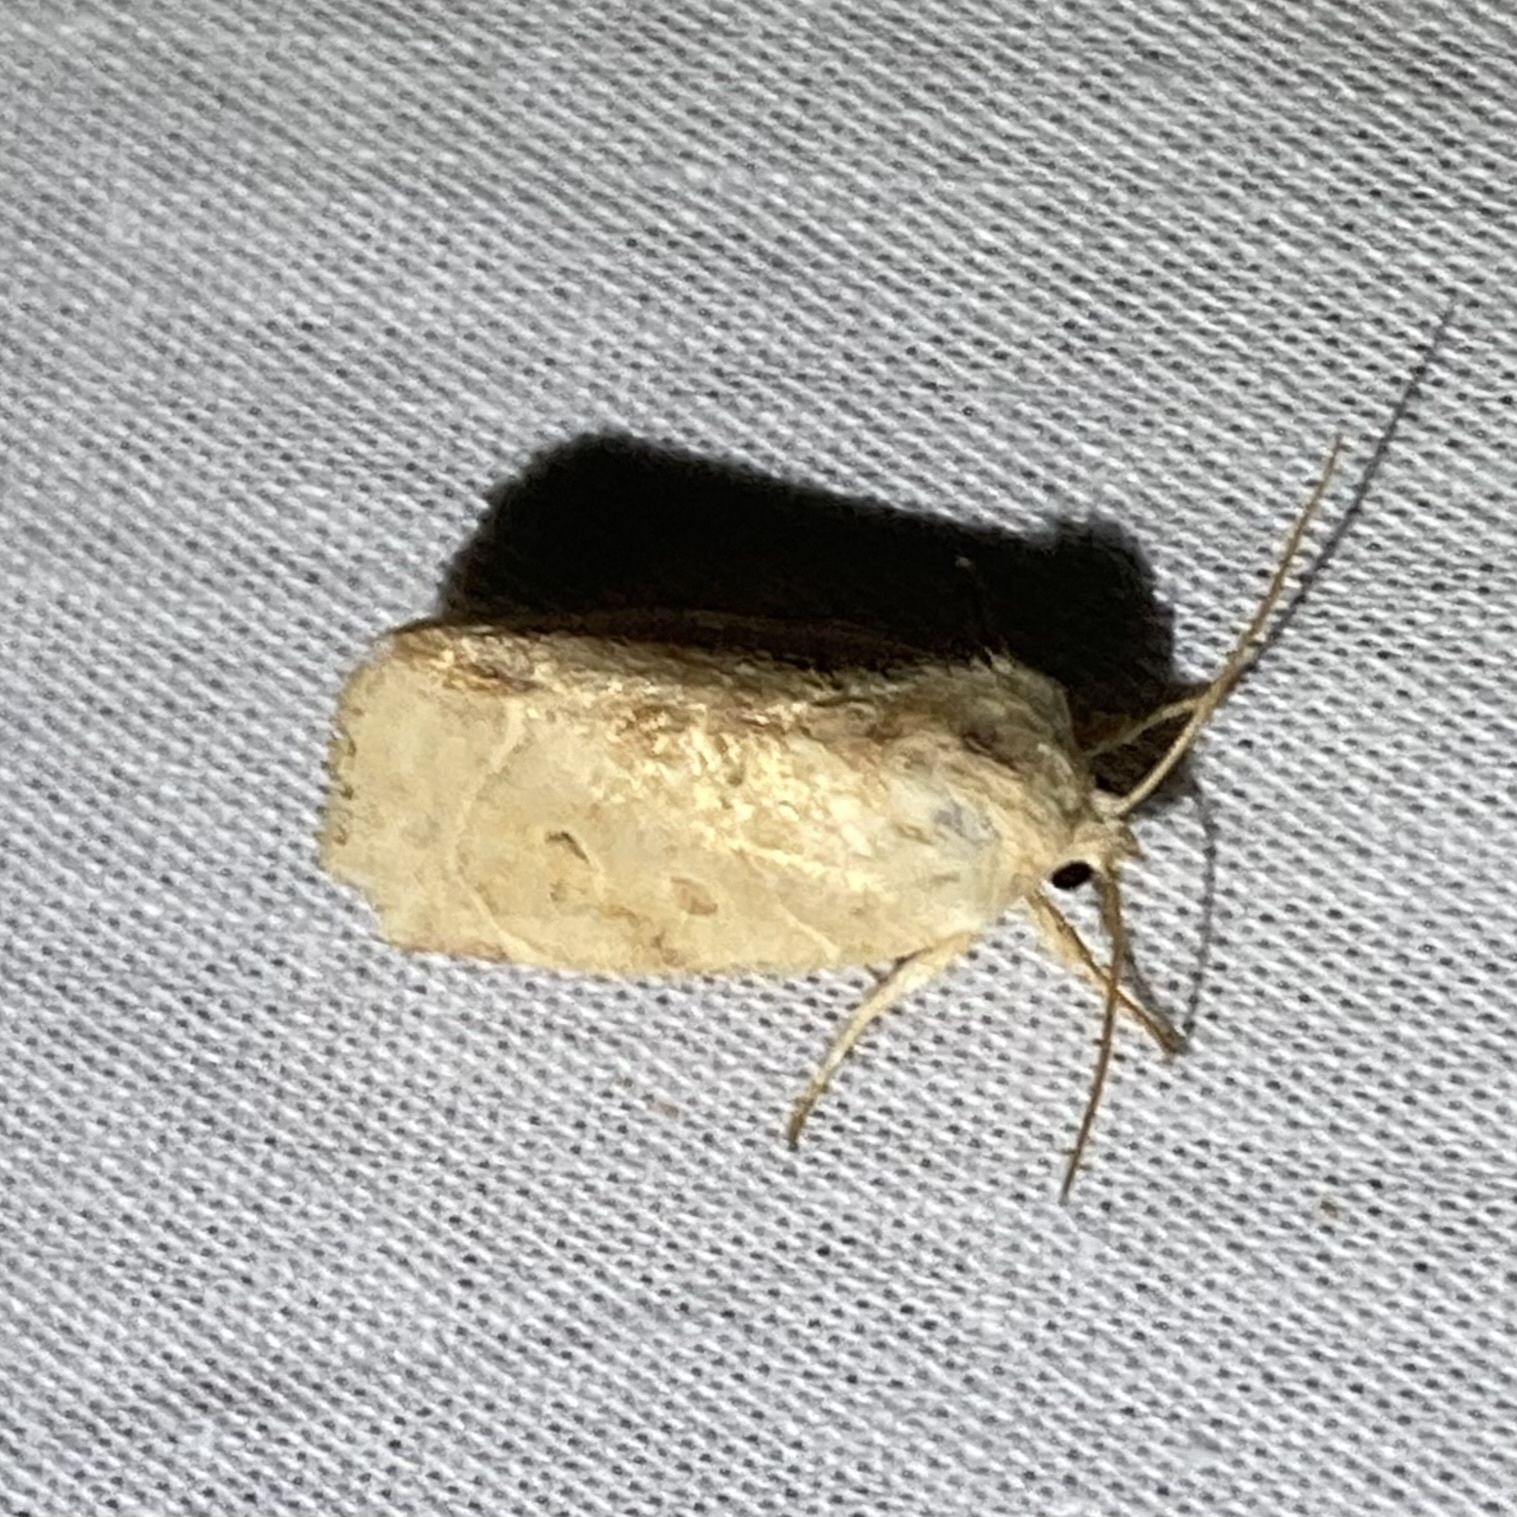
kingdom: Animalia
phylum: Arthropoda
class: Insecta
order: Lepidoptera
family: Noctuidae
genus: Cosmia
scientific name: Cosmia calami
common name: American dun-bar moth
